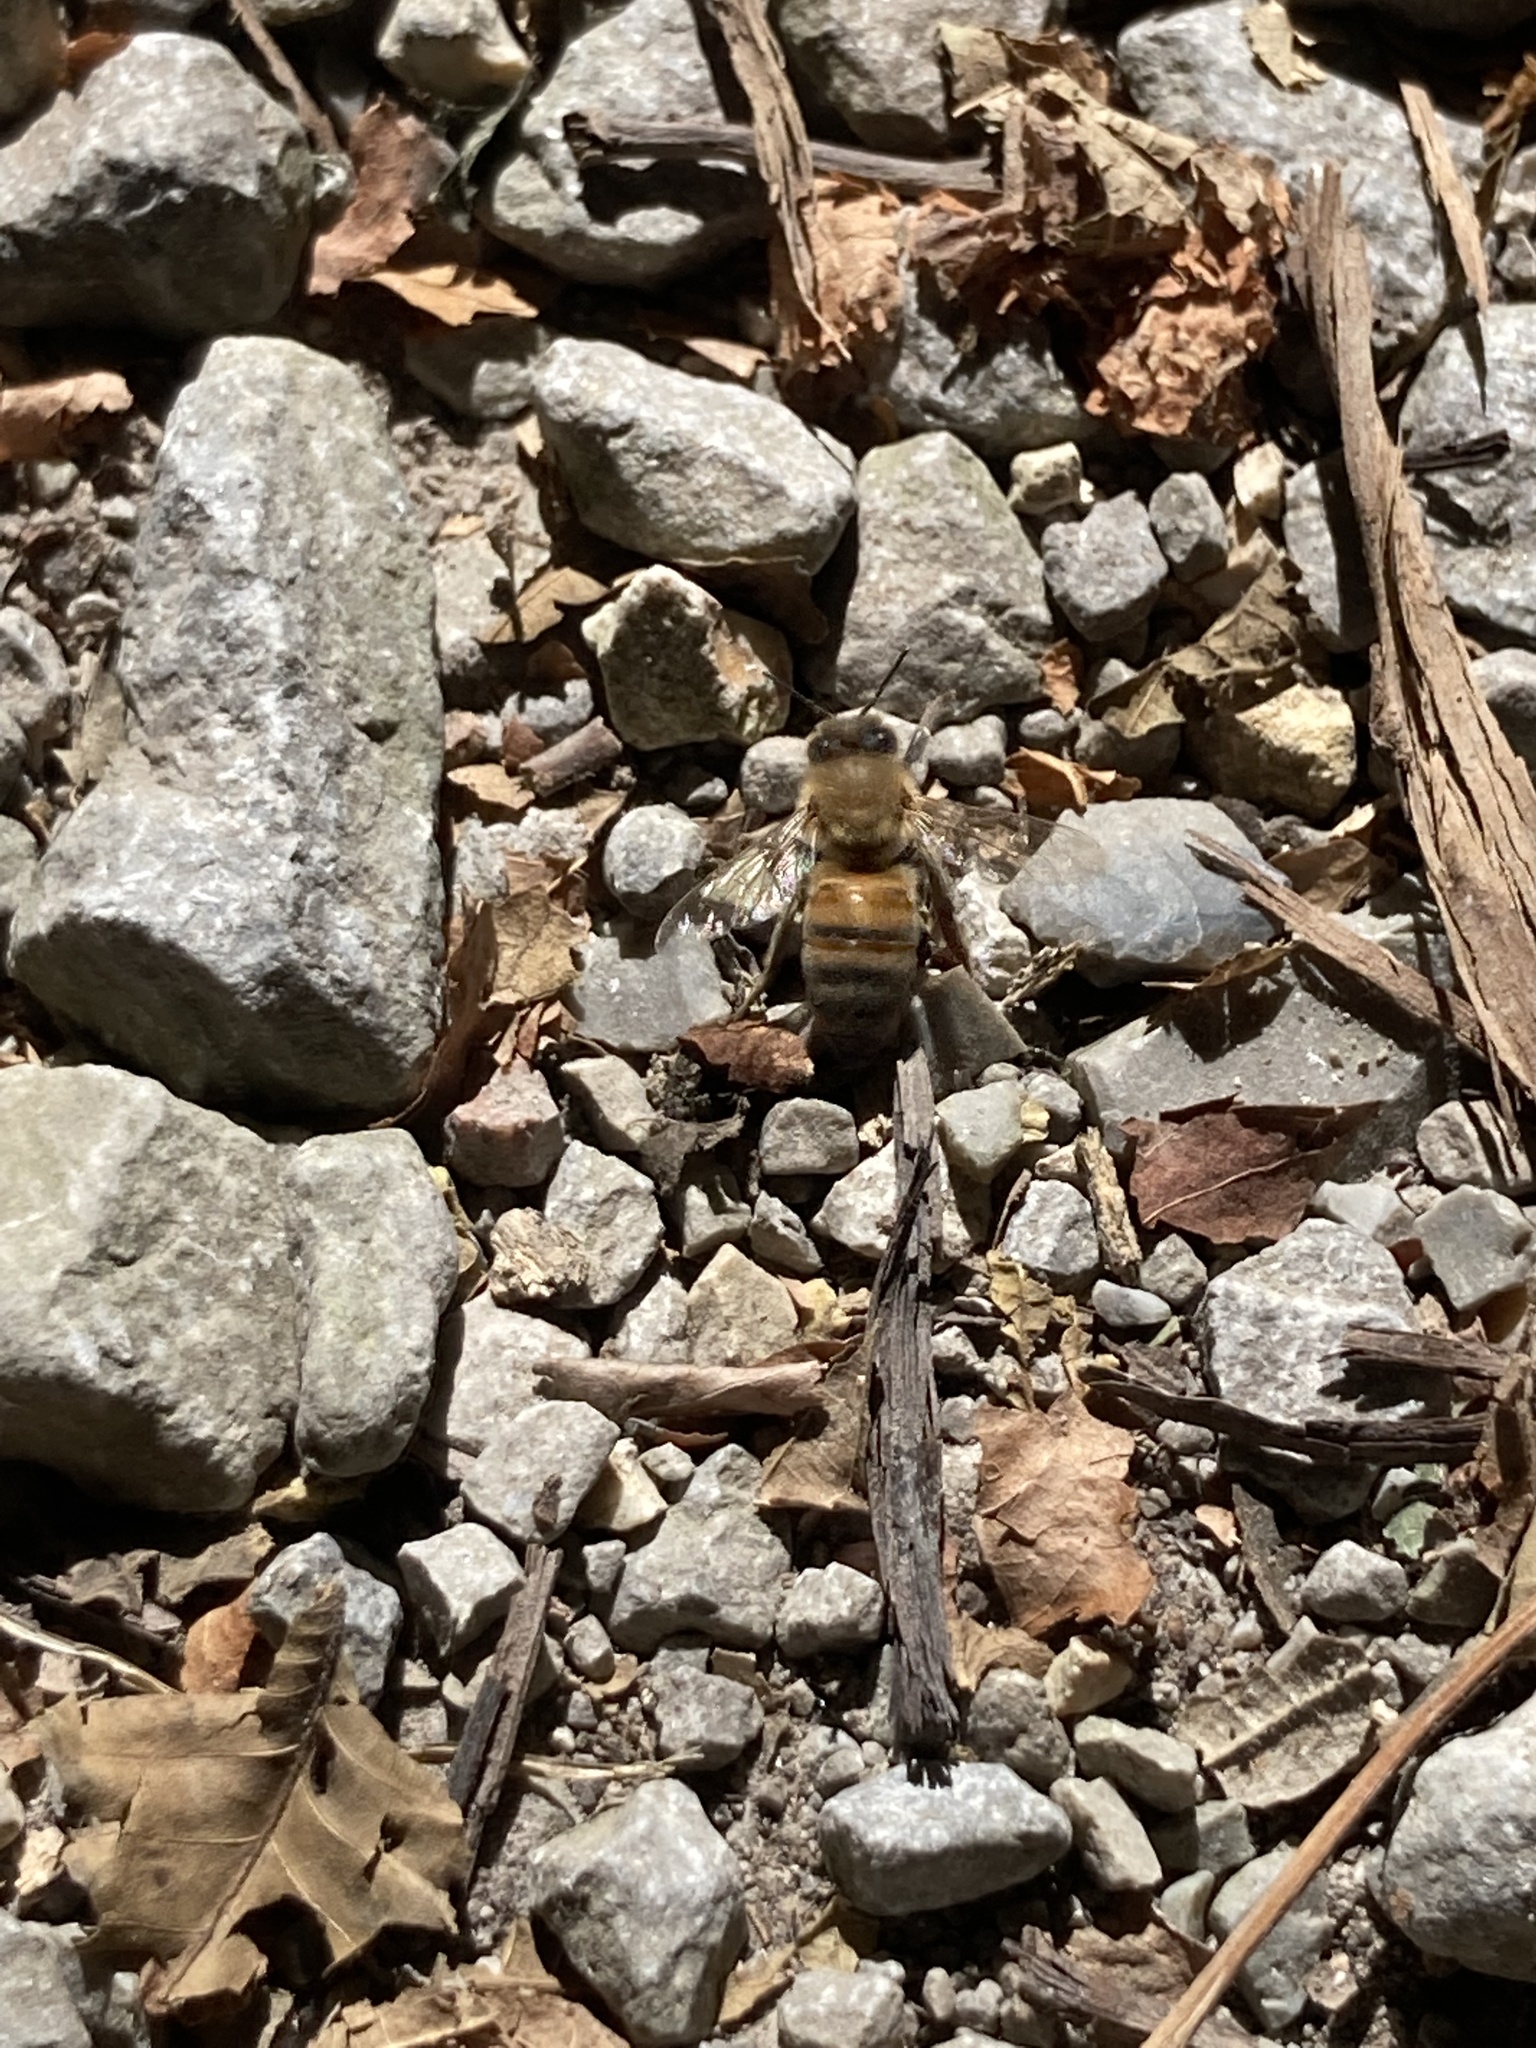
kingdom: Animalia
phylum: Arthropoda
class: Insecta
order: Hymenoptera
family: Apidae
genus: Apis
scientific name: Apis mellifera
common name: Honey bee
